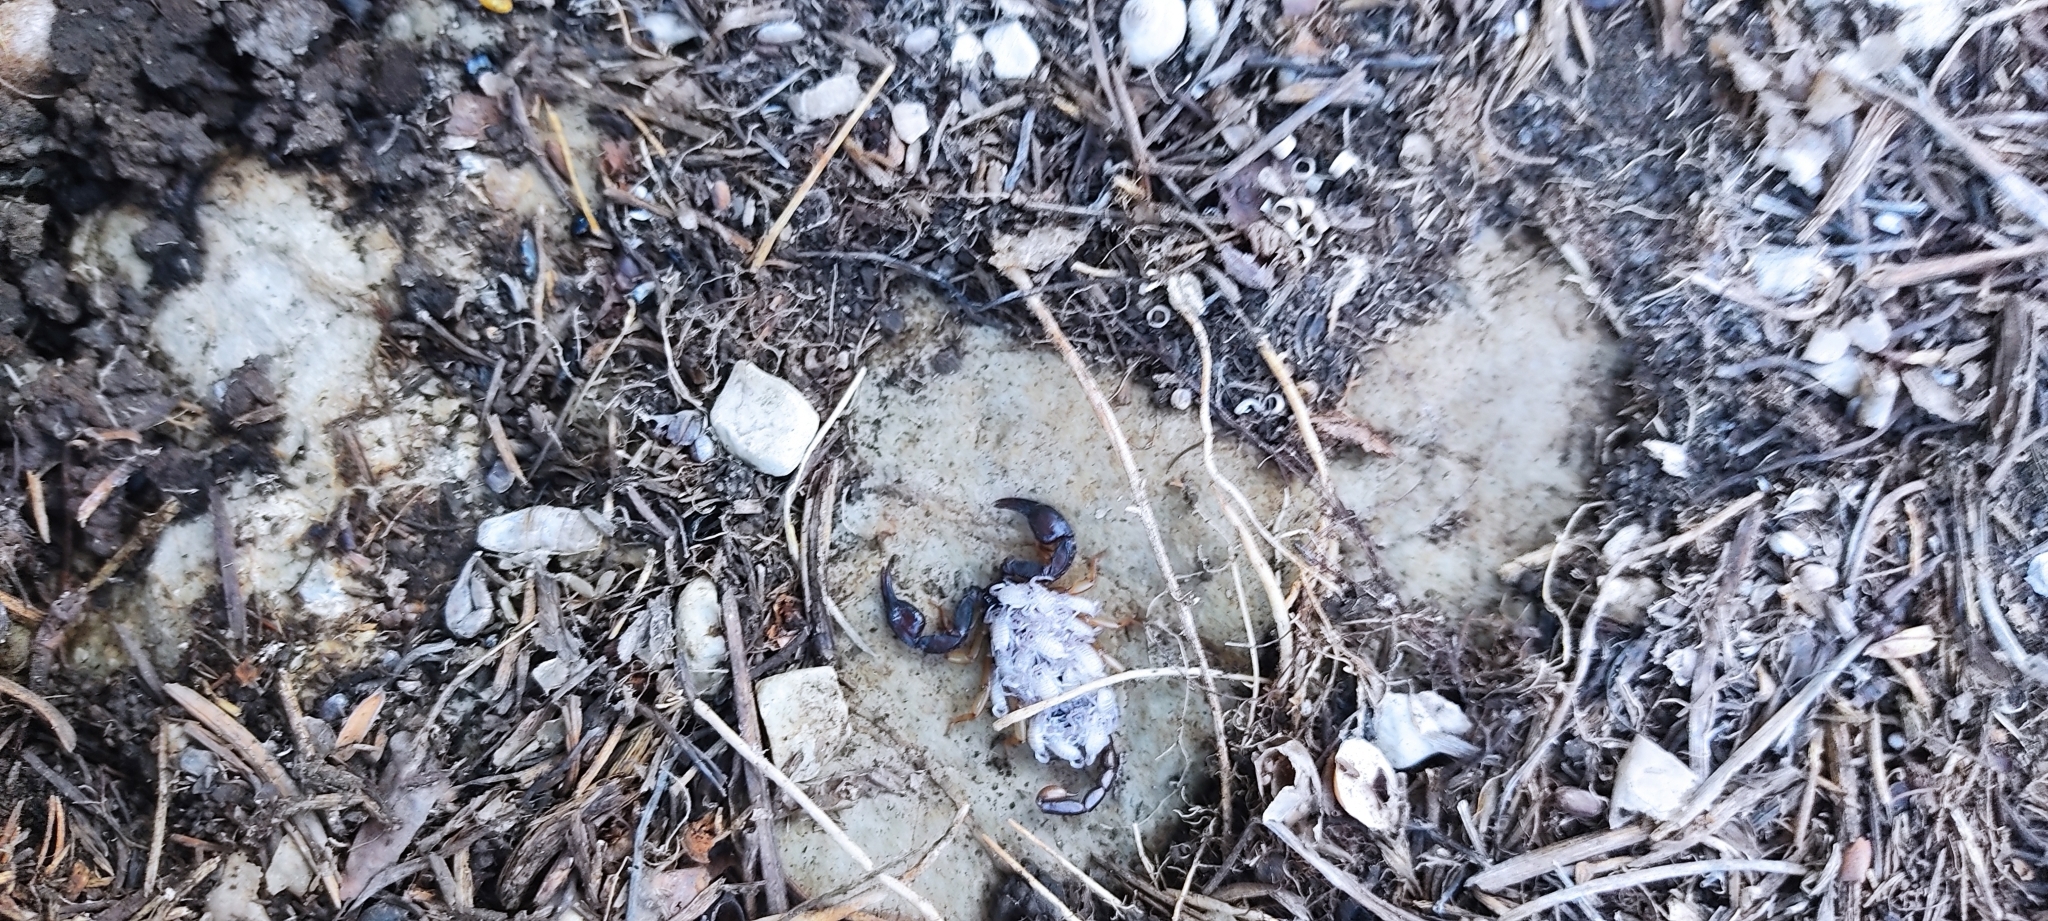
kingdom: Animalia
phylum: Arthropoda
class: Arachnida
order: Scorpiones
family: Euscorpiidae
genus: Euscorpius
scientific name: Euscorpius niciensis
